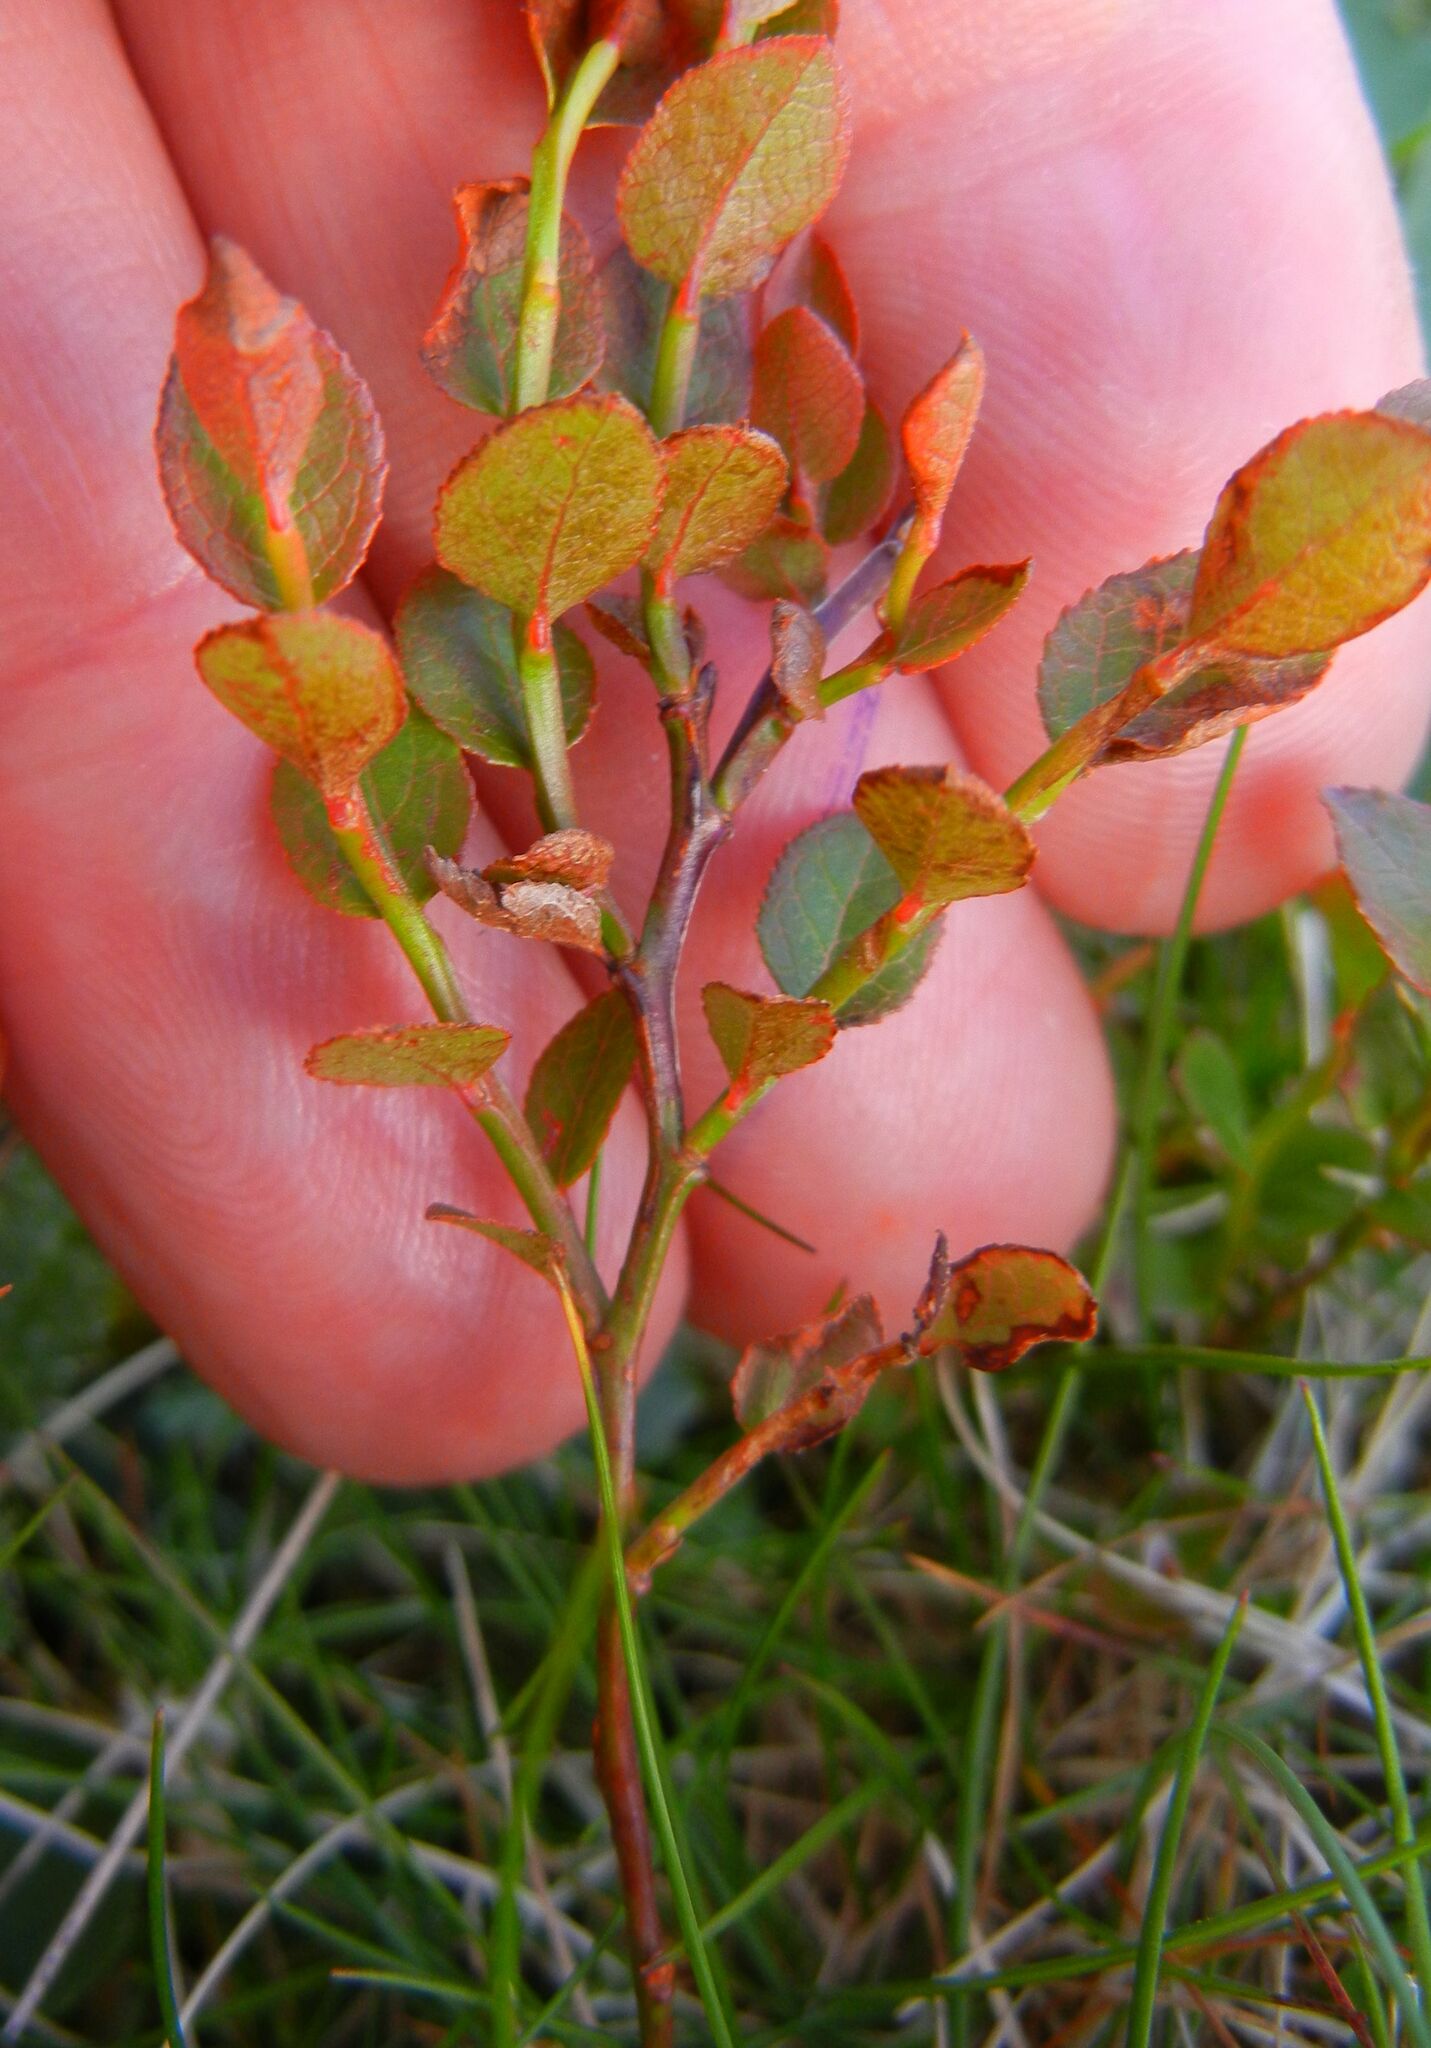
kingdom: Plantae
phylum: Tracheophyta
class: Magnoliopsida
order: Ericales
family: Ericaceae
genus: Vaccinium
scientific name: Vaccinium myrtillus
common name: Bilberry
